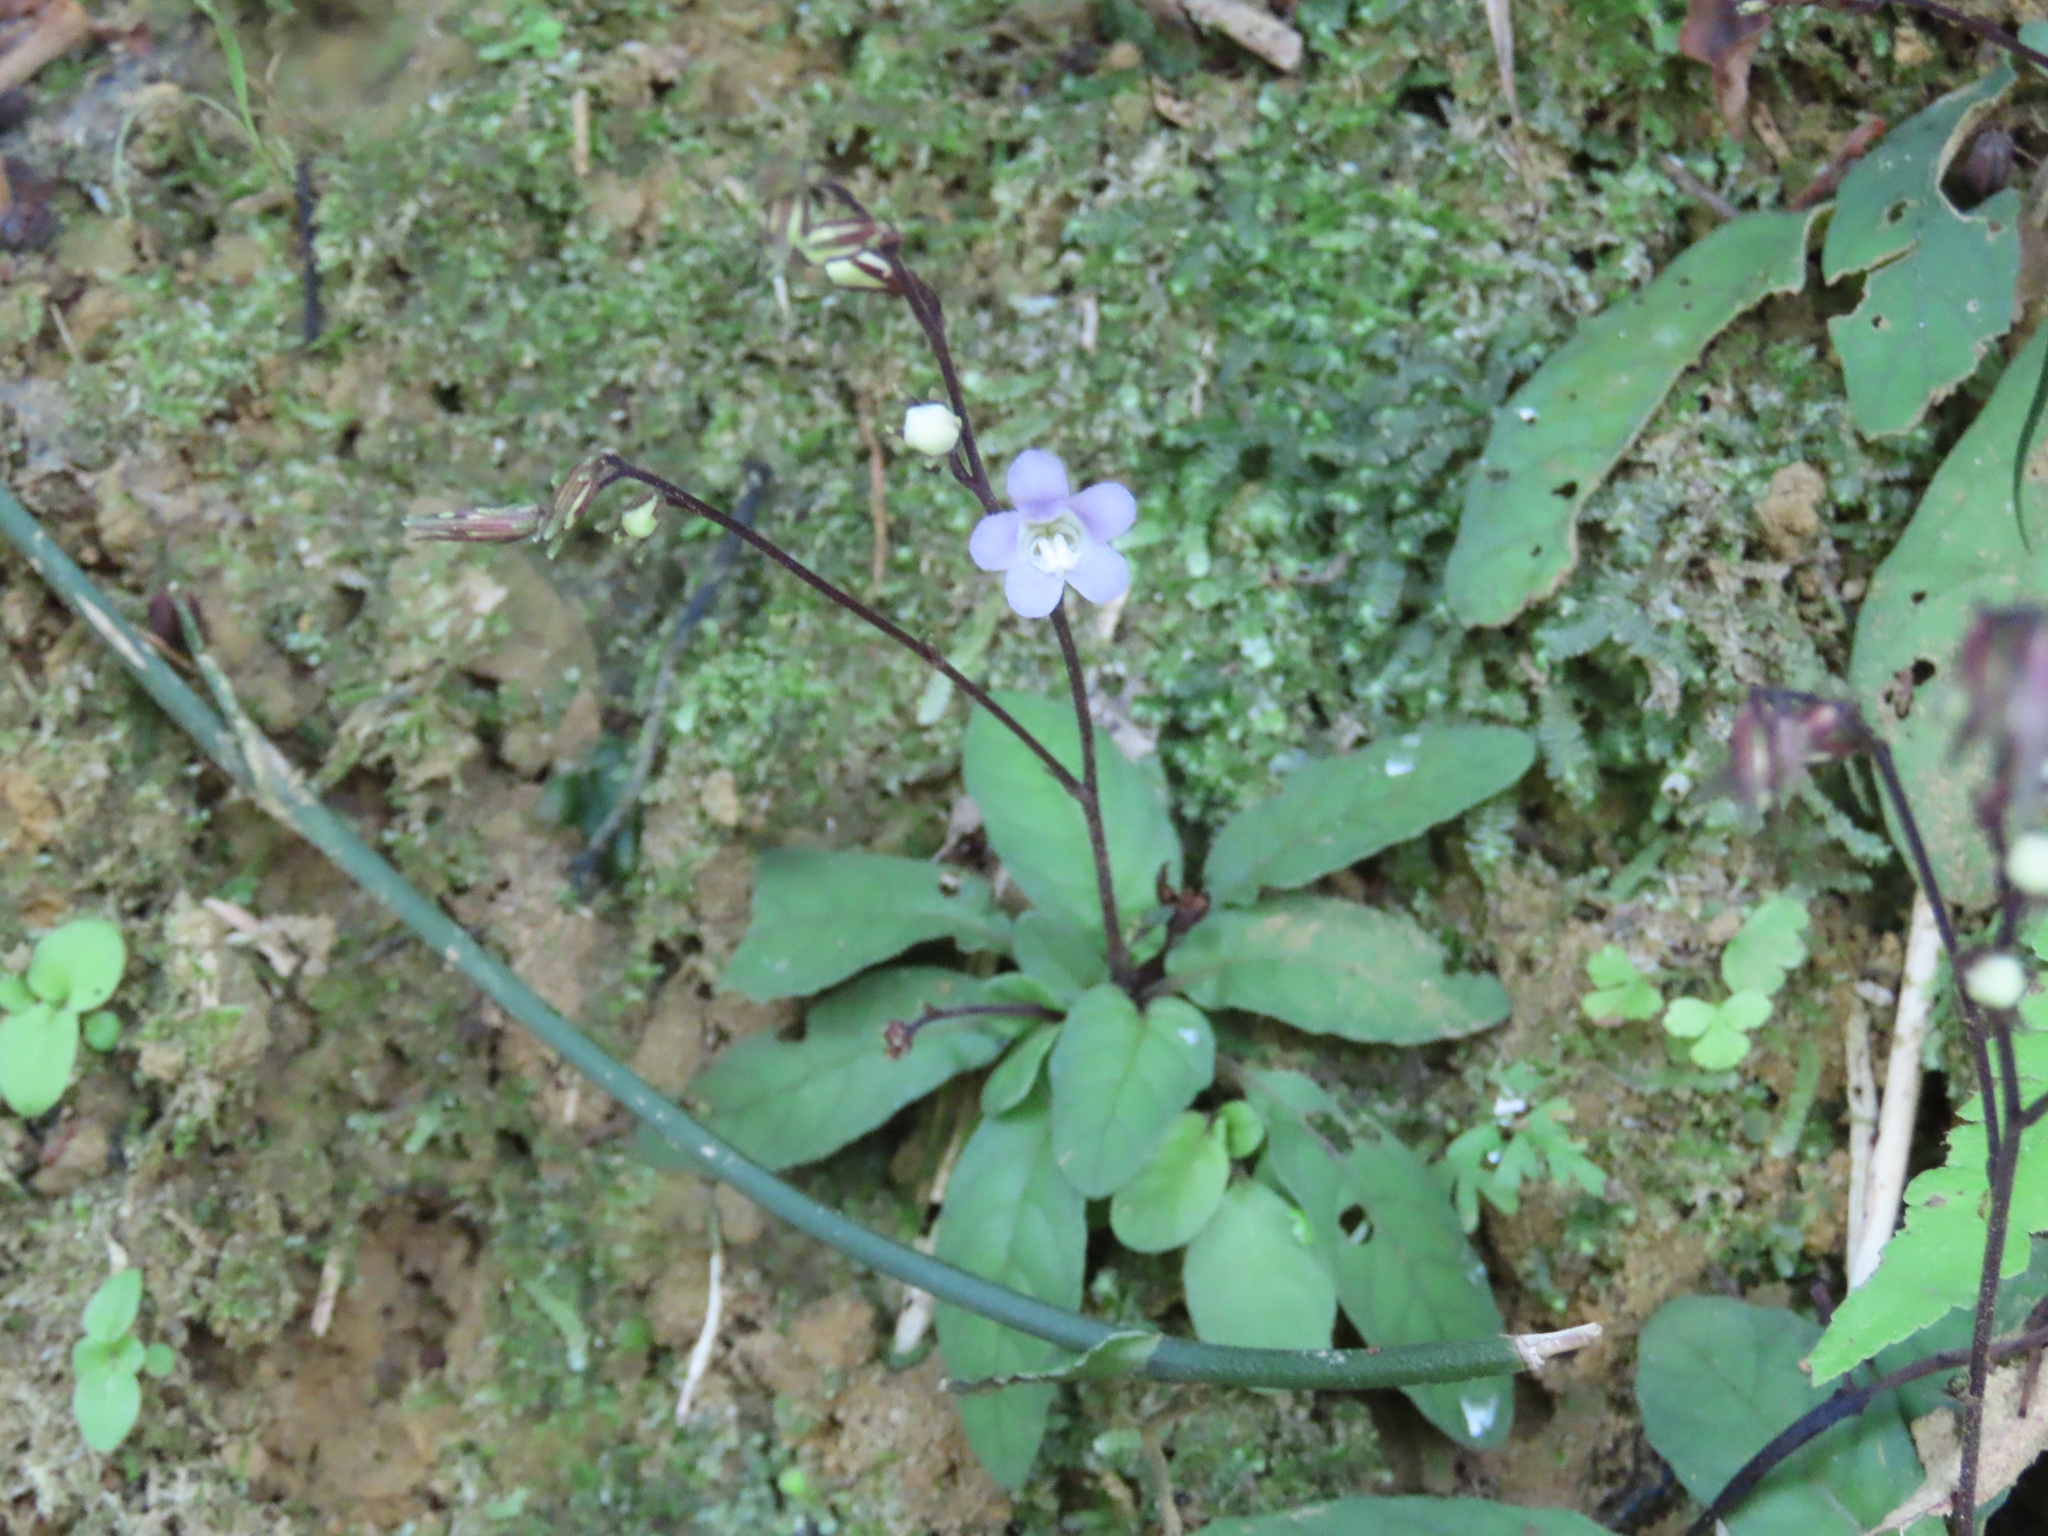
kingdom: Plantae
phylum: Tracheophyta
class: Magnoliopsida
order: Lamiales
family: Acanthaceae
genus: Staurogyne
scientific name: Staurogyne concinnula
